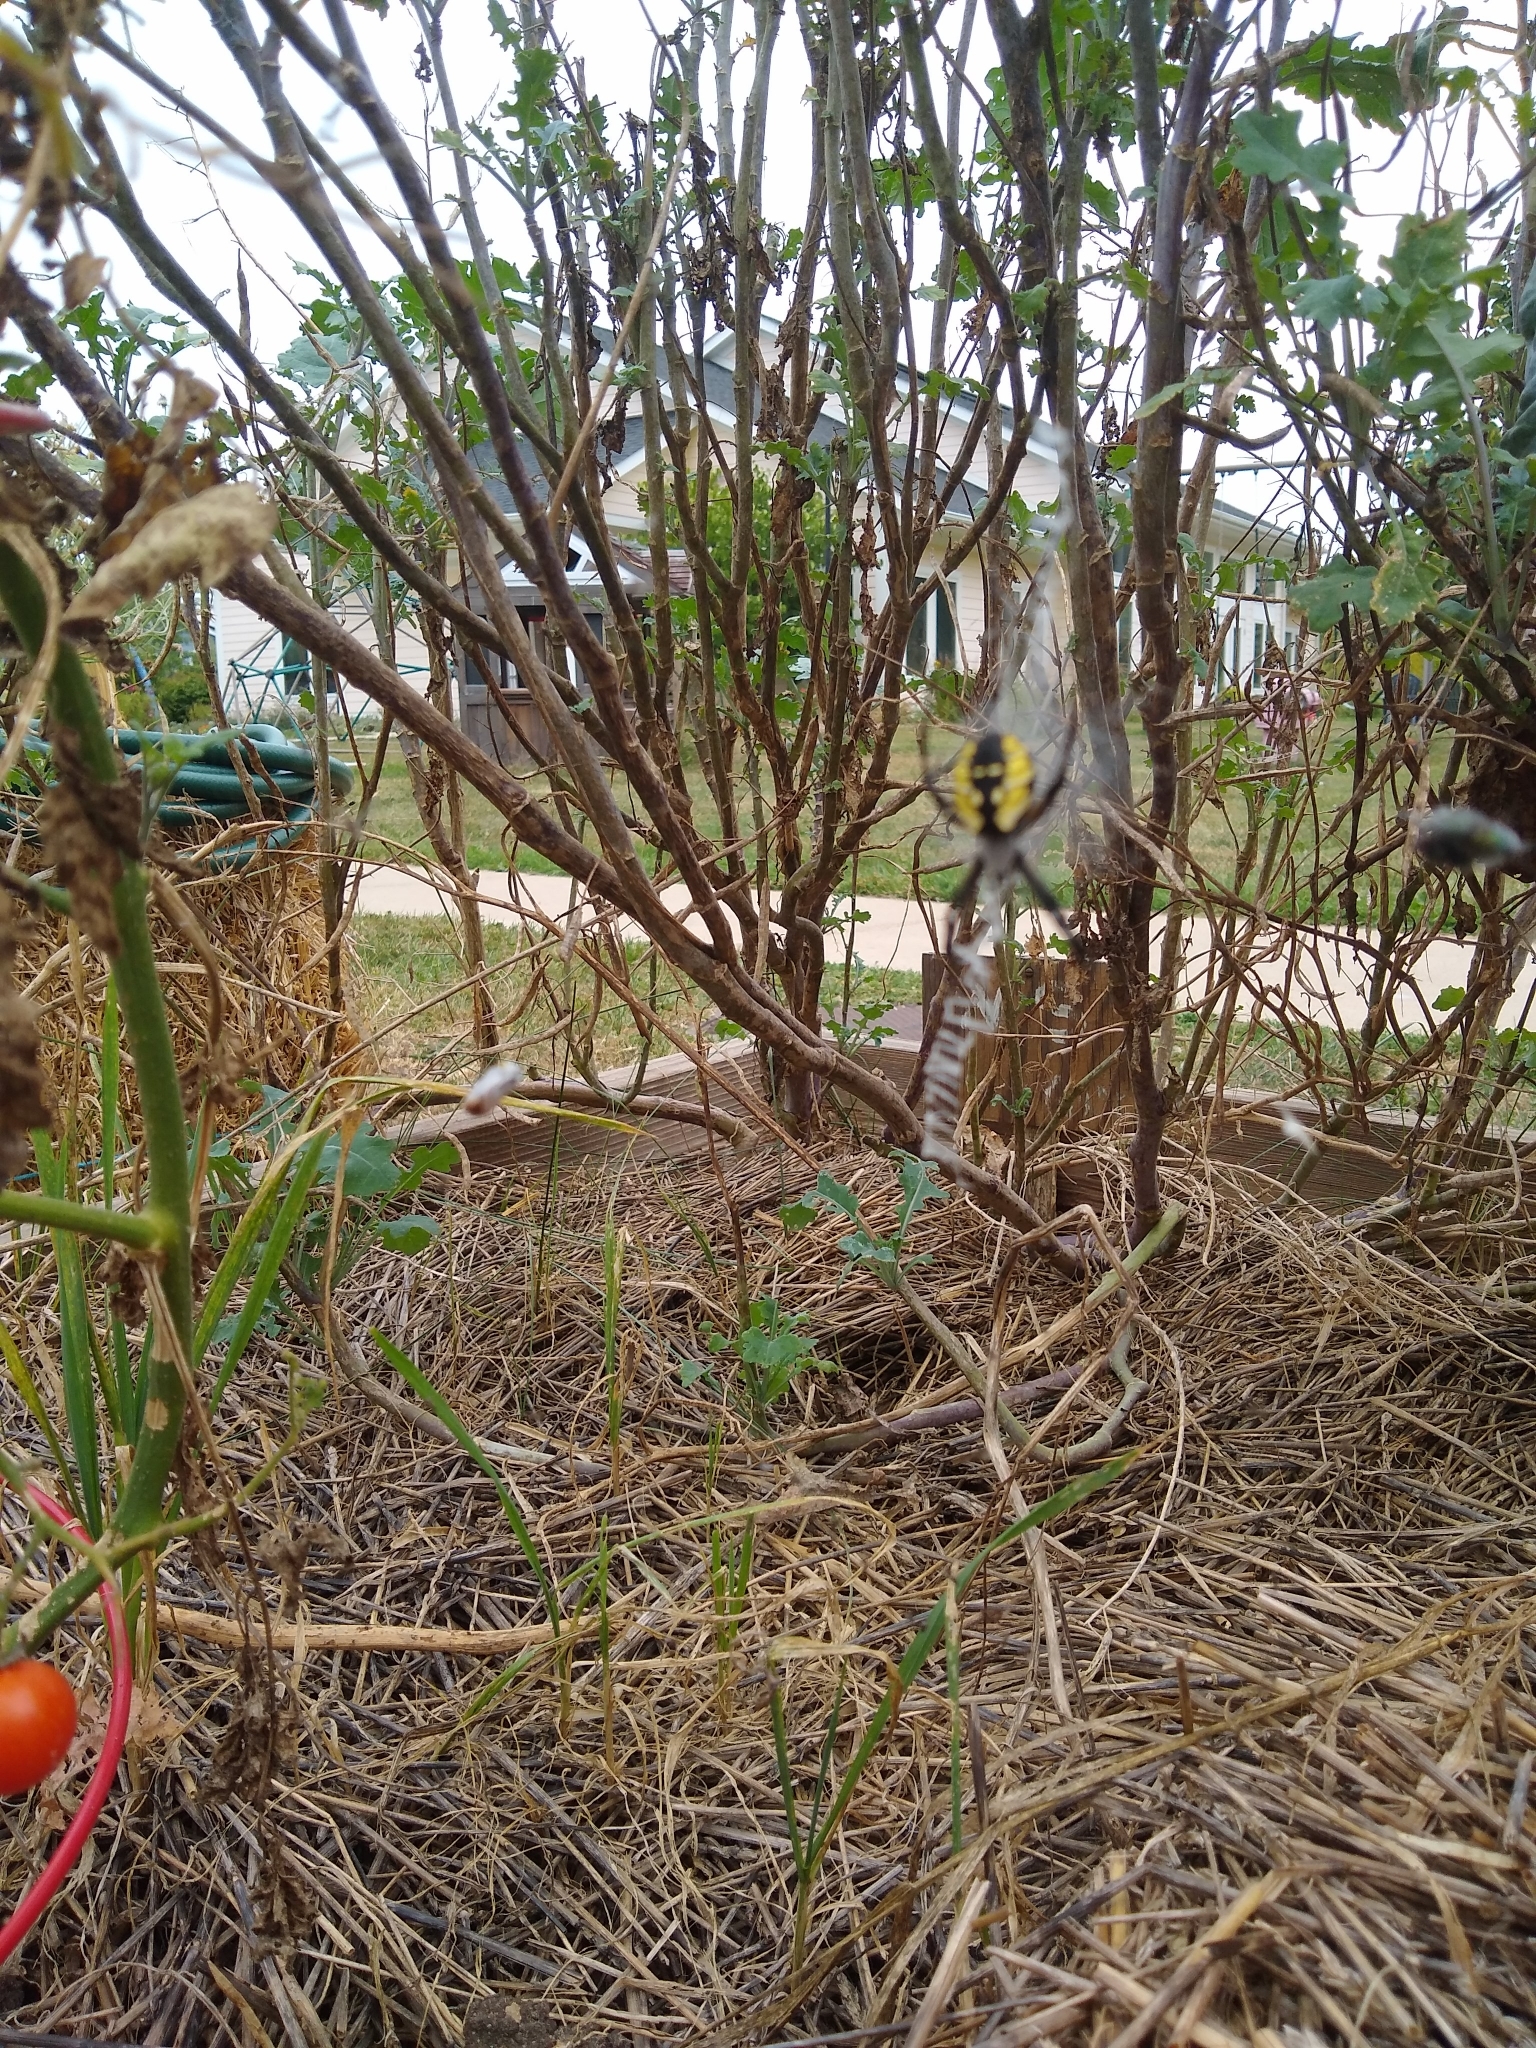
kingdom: Animalia
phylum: Arthropoda
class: Arachnida
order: Araneae
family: Araneidae
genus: Argiope
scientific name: Argiope aurantia
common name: Orb weavers
